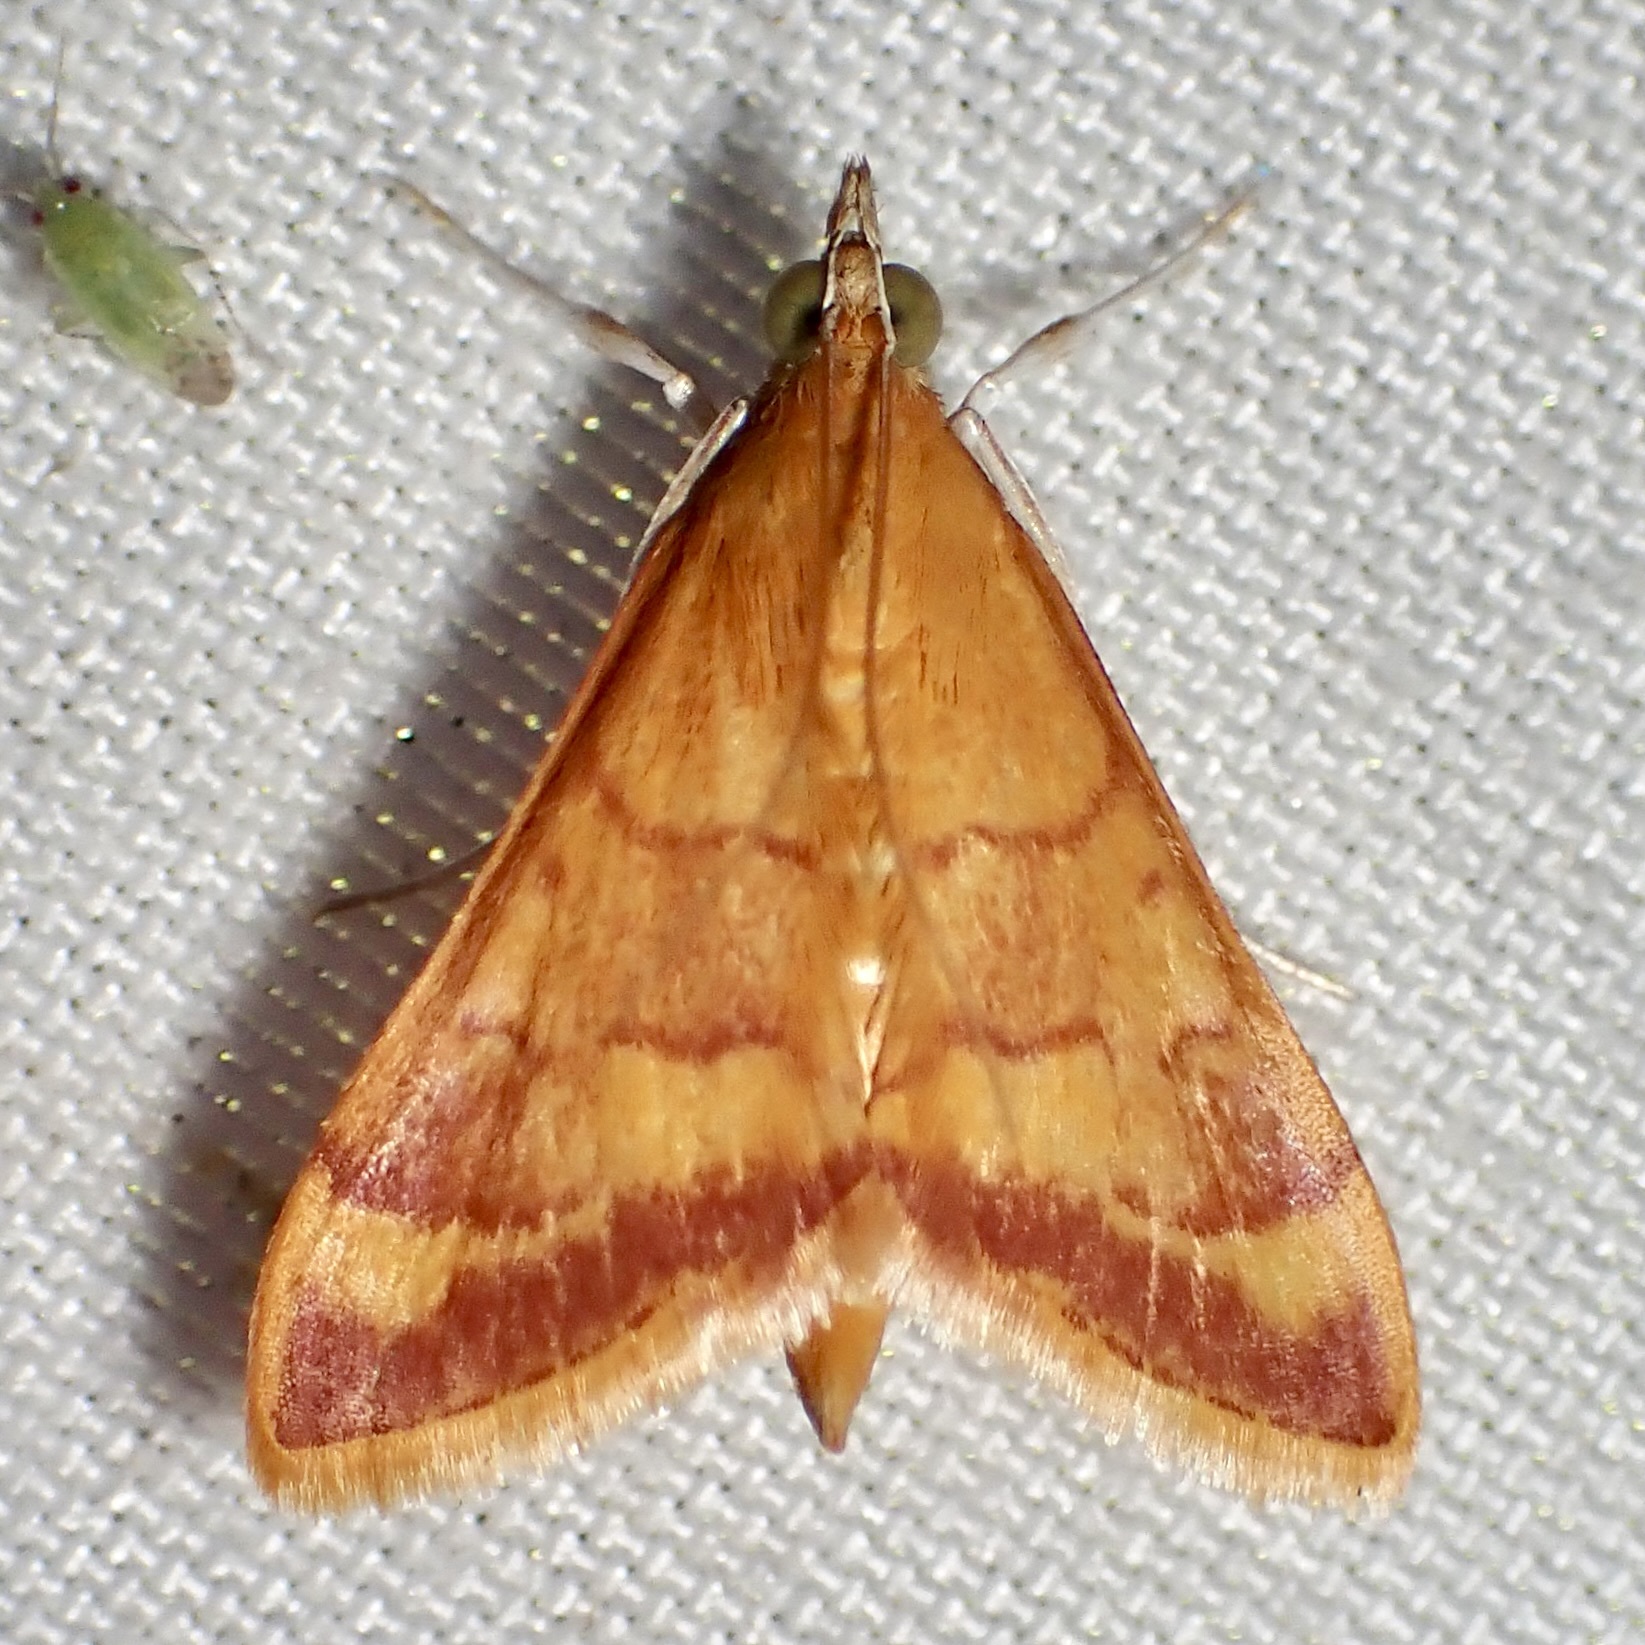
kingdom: Animalia
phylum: Arthropoda
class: Insecta
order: Lepidoptera
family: Crambidae
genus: Pyrausta
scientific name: Pyrausta pseudonythesalis
